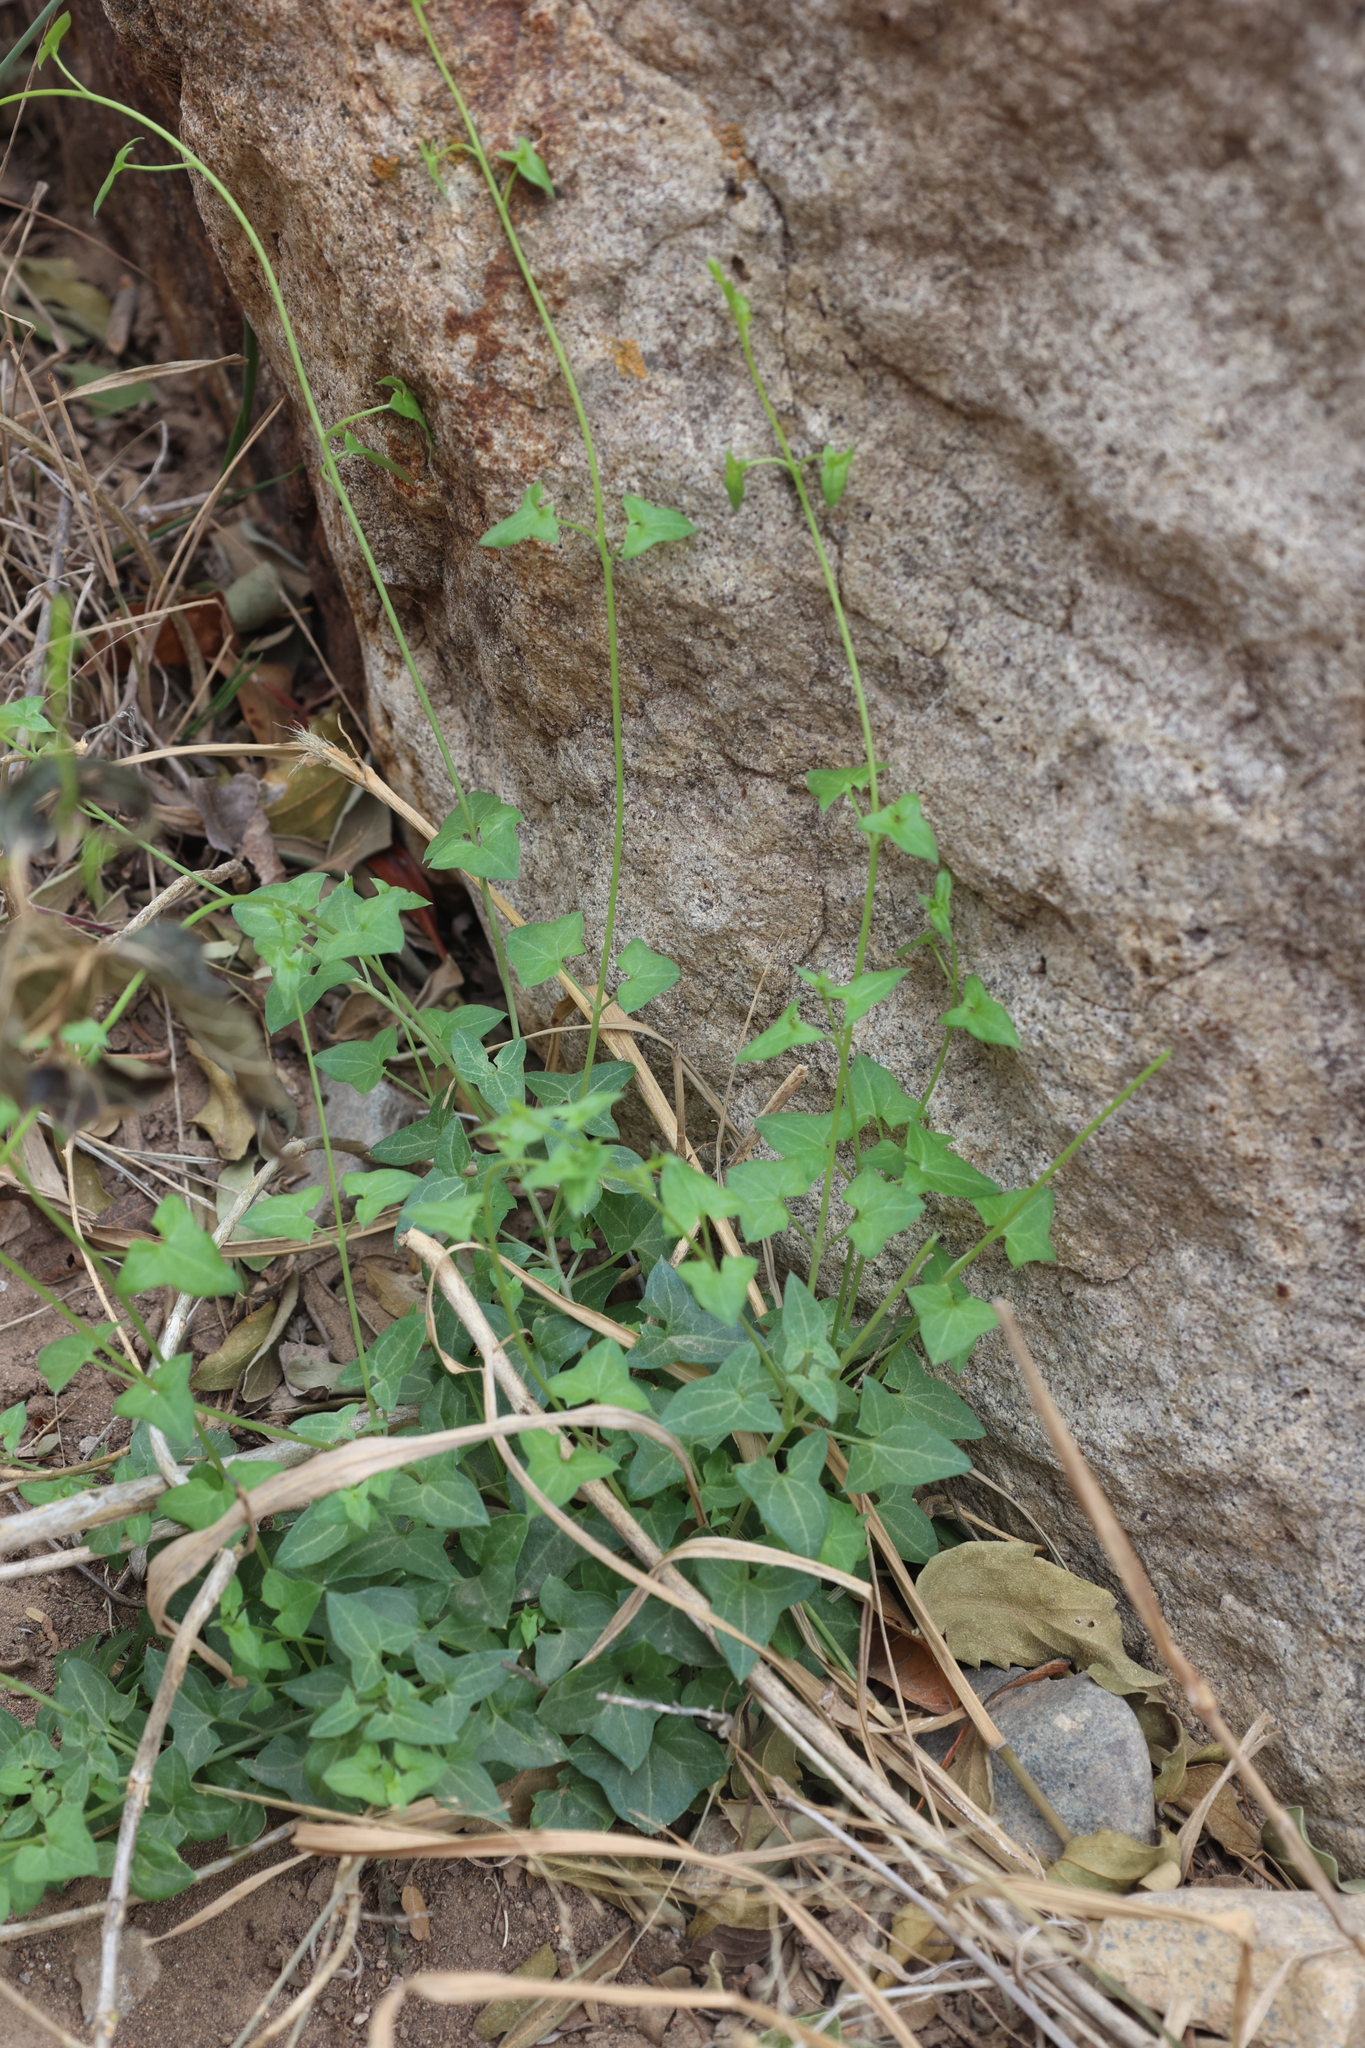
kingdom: Plantae
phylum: Tracheophyta
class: Magnoliopsida
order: Lamiales
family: Plantaginaceae
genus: Maurandella
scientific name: Maurandella antirrhiniflora
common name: Violet twining-snapdragon
